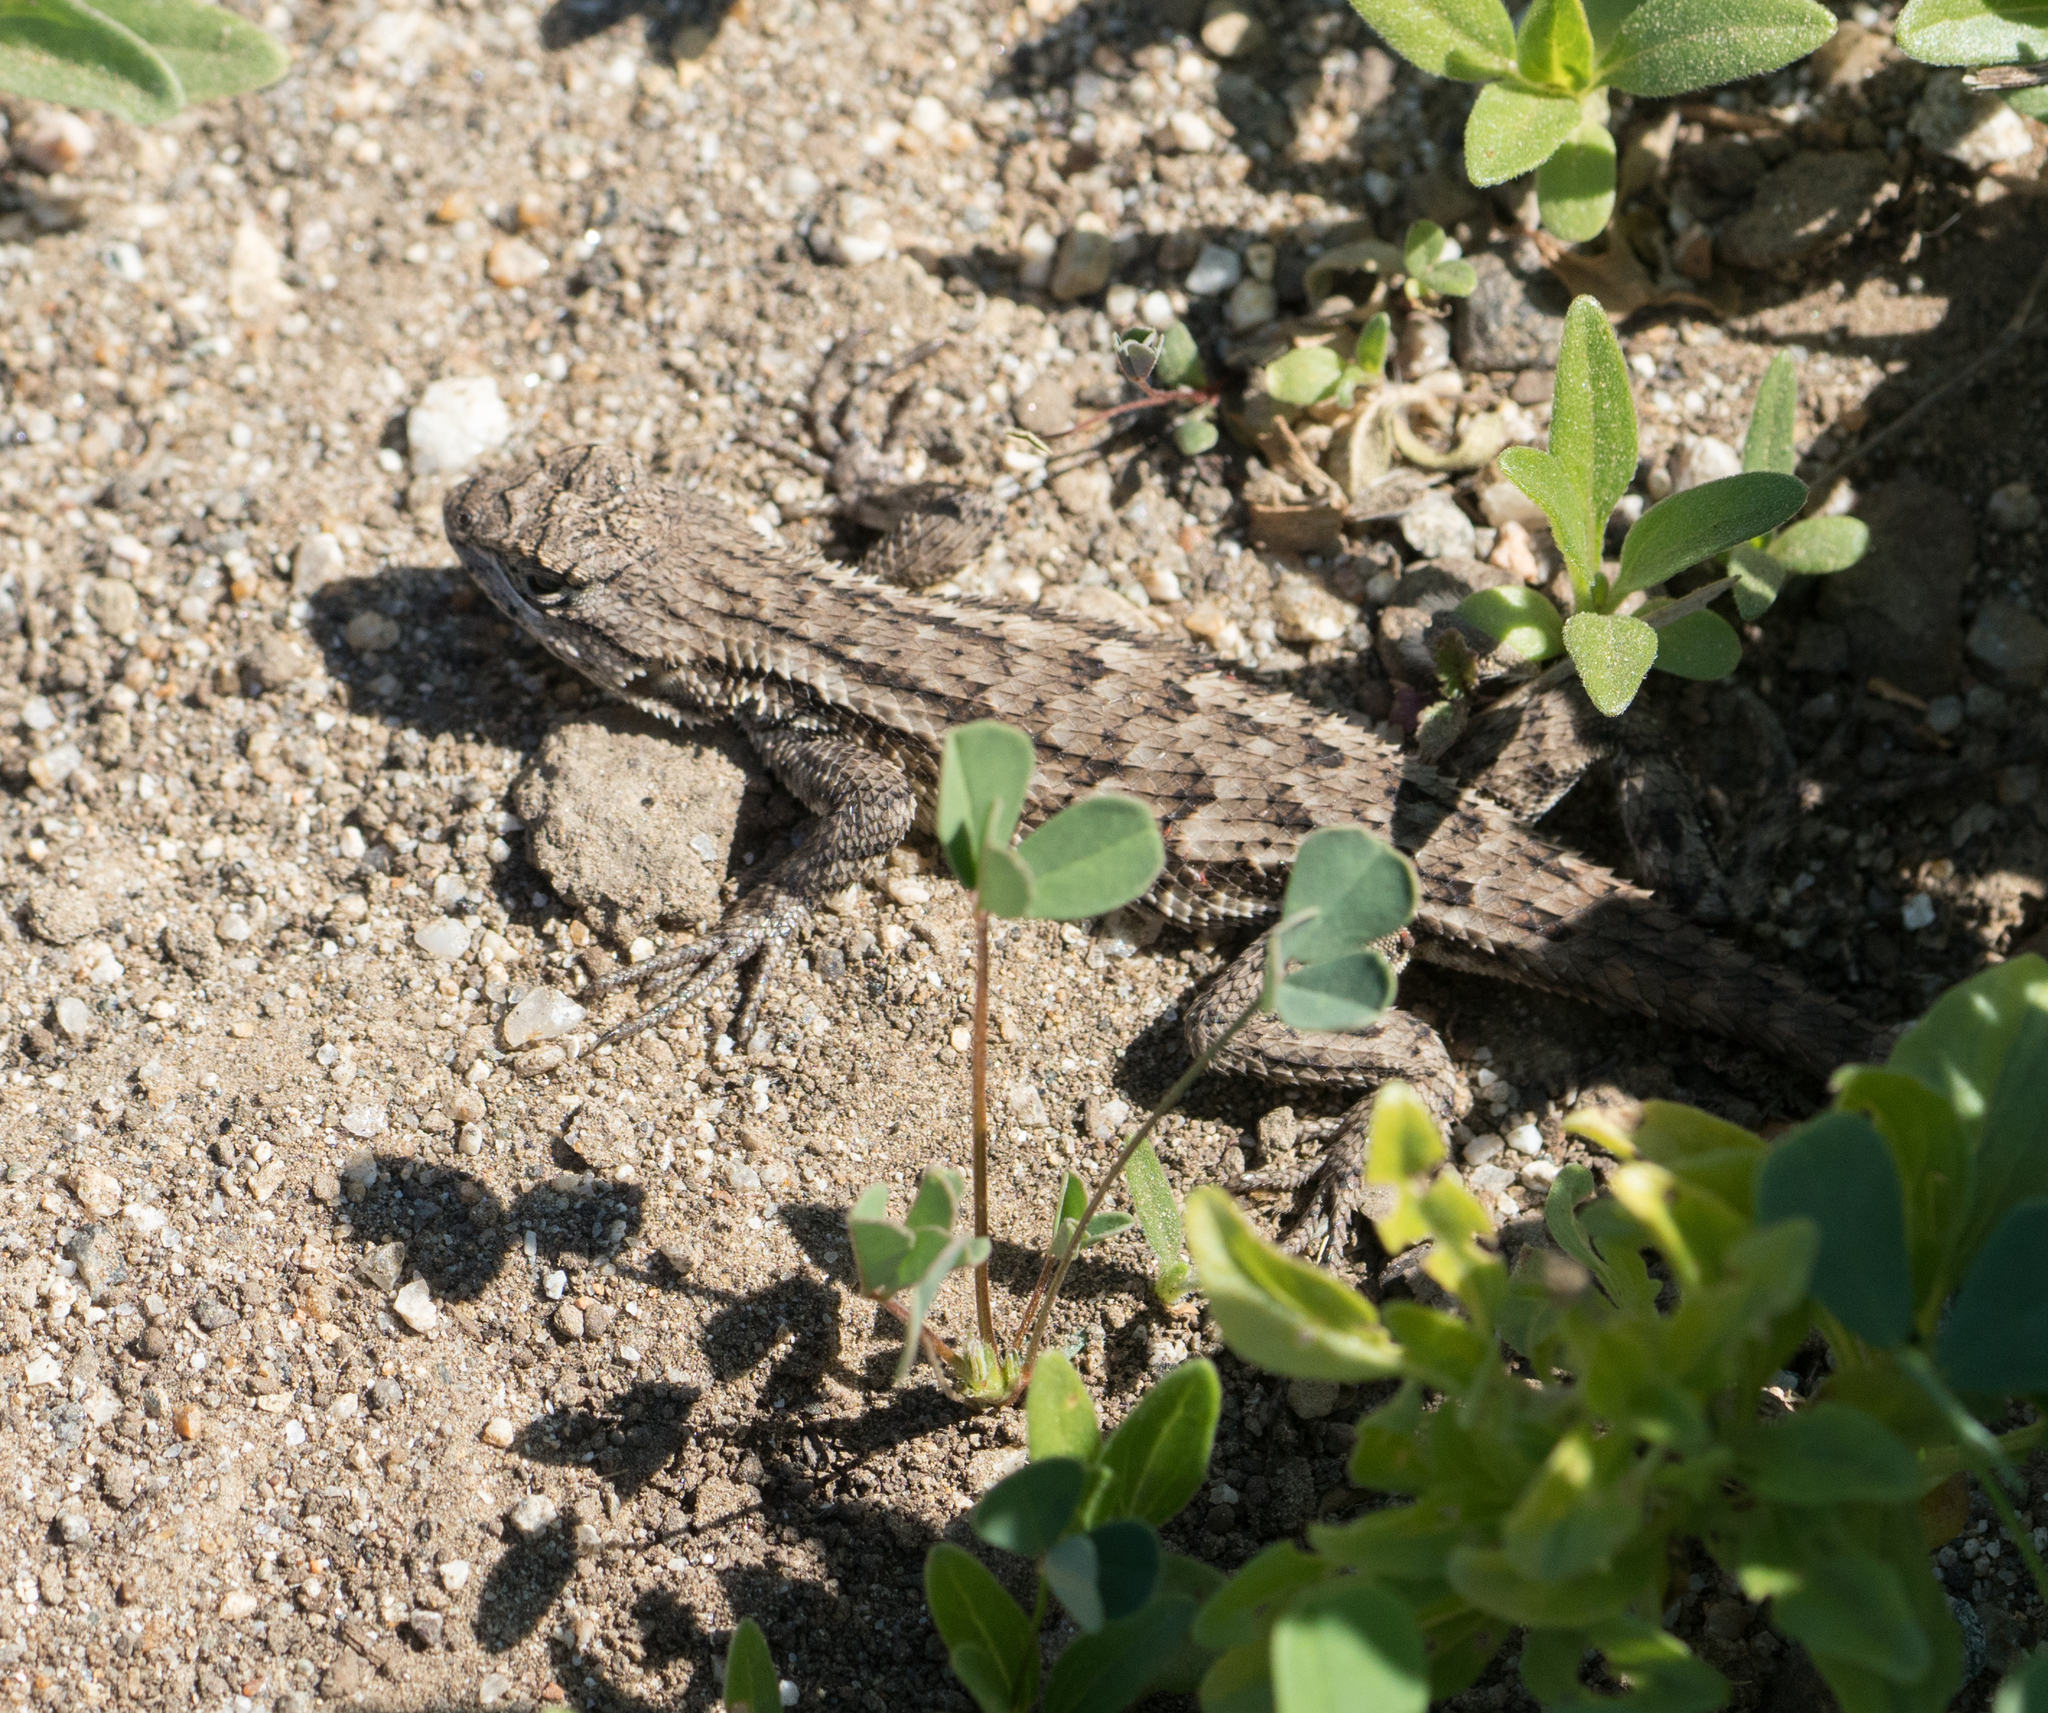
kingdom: Animalia
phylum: Chordata
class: Squamata
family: Phrynosomatidae
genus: Sceloporus
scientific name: Sceloporus occidentalis
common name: Western fence lizard
